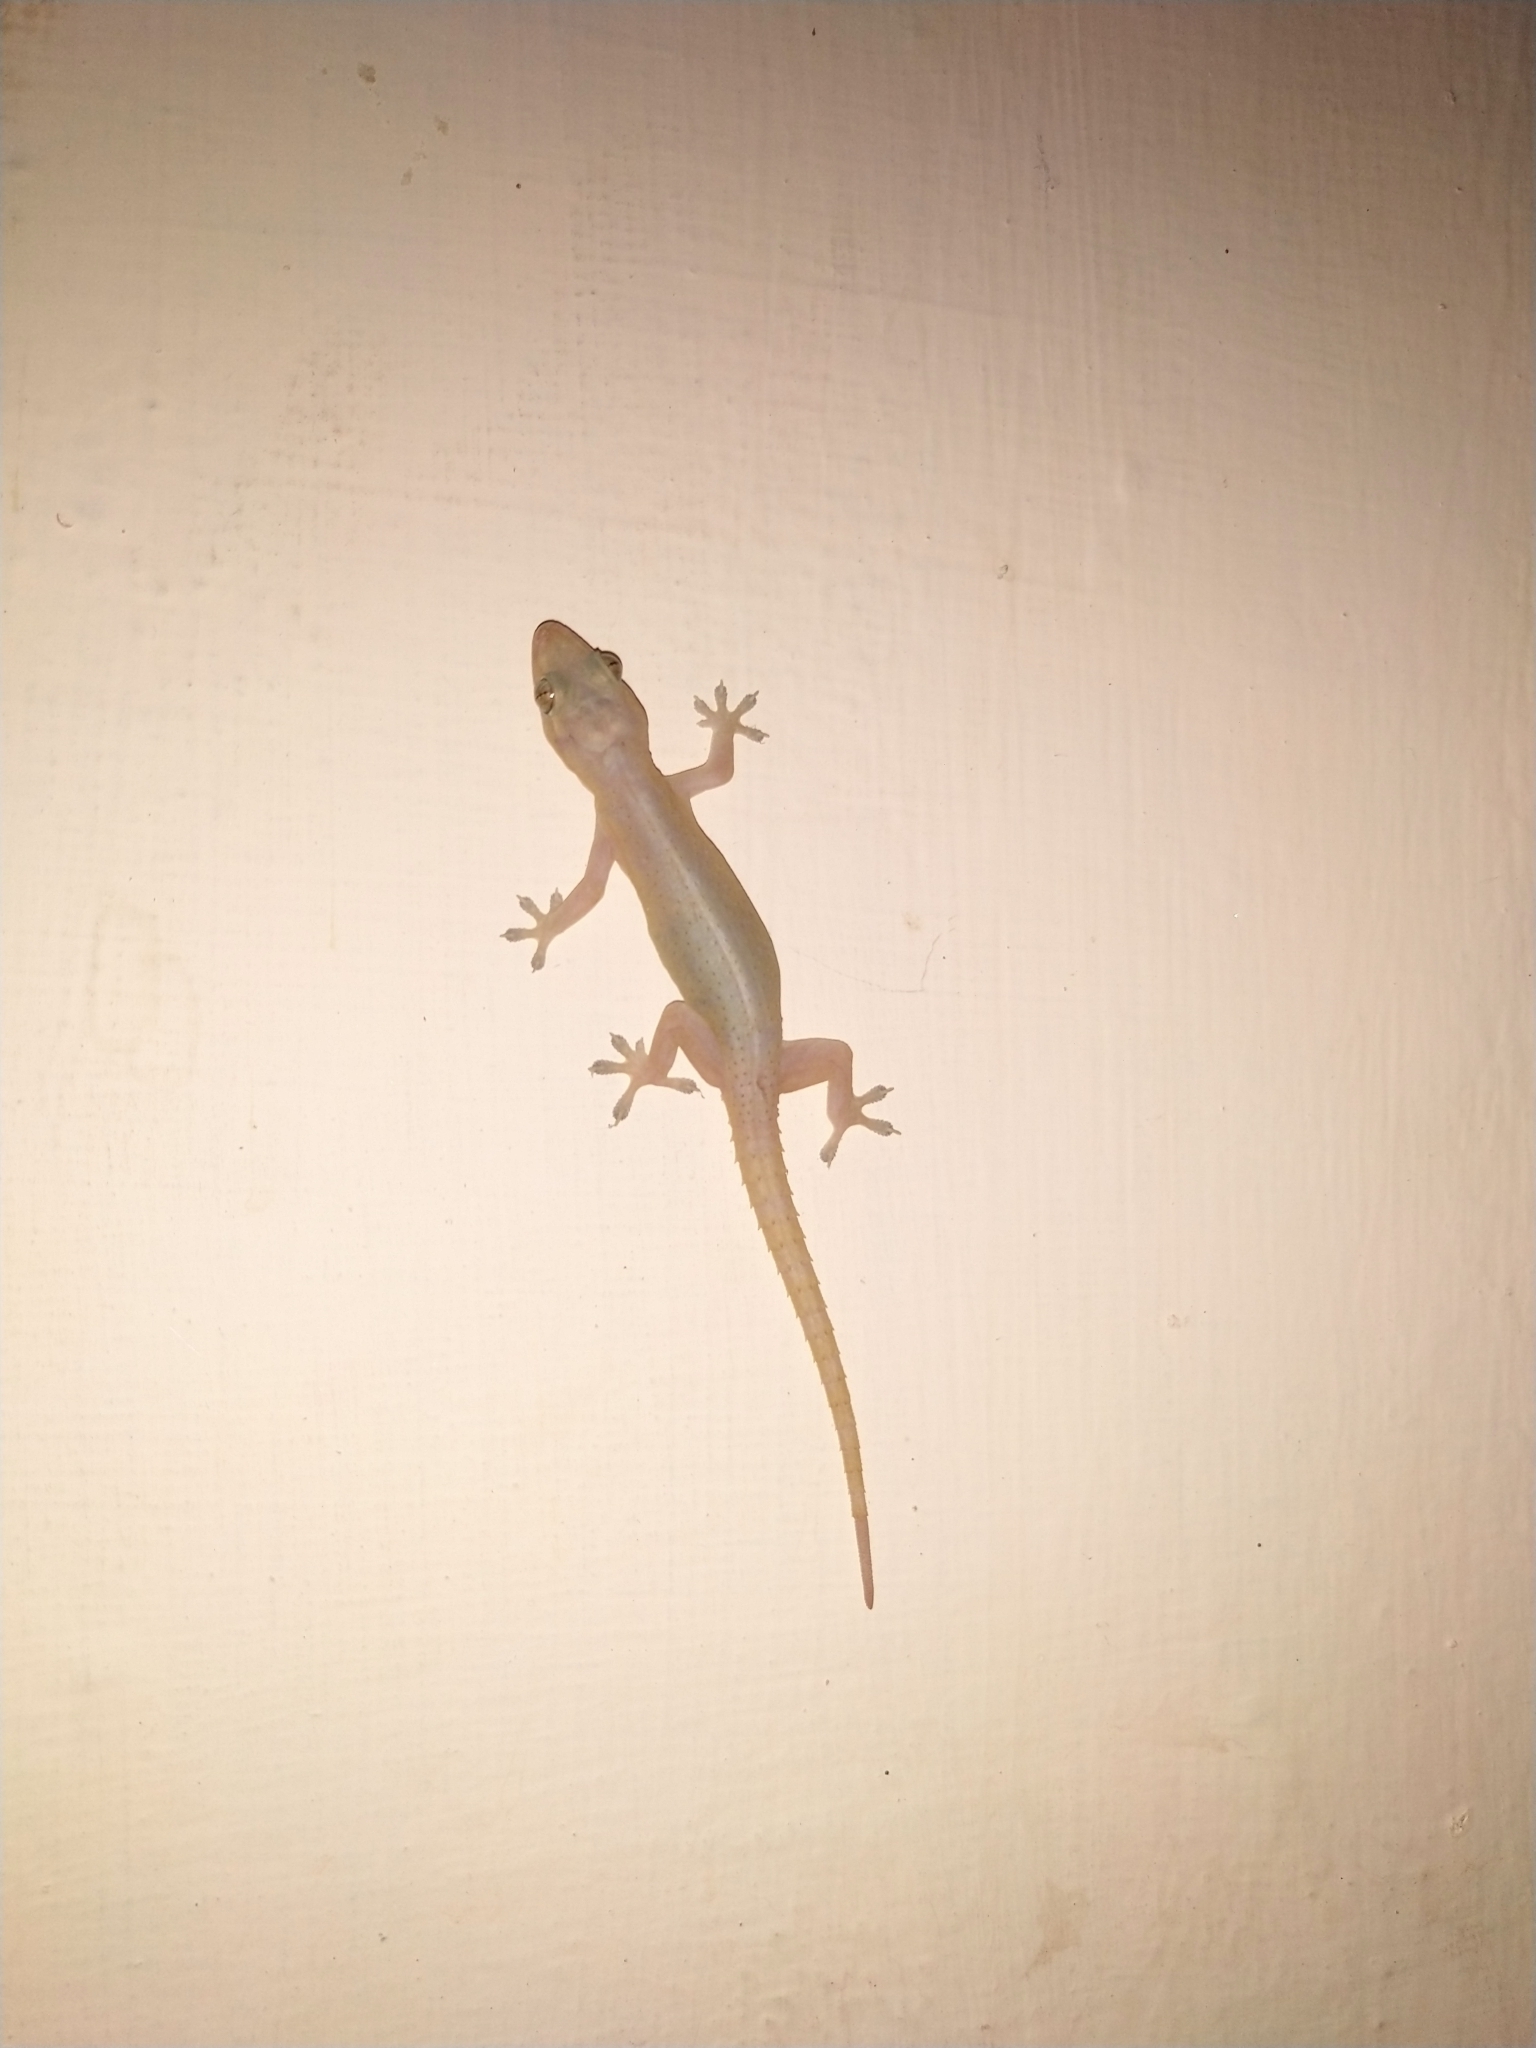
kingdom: Animalia
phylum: Chordata
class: Squamata
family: Gekkonidae
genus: Hemidactylus
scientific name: Hemidactylus frenatus
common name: Common house gecko
